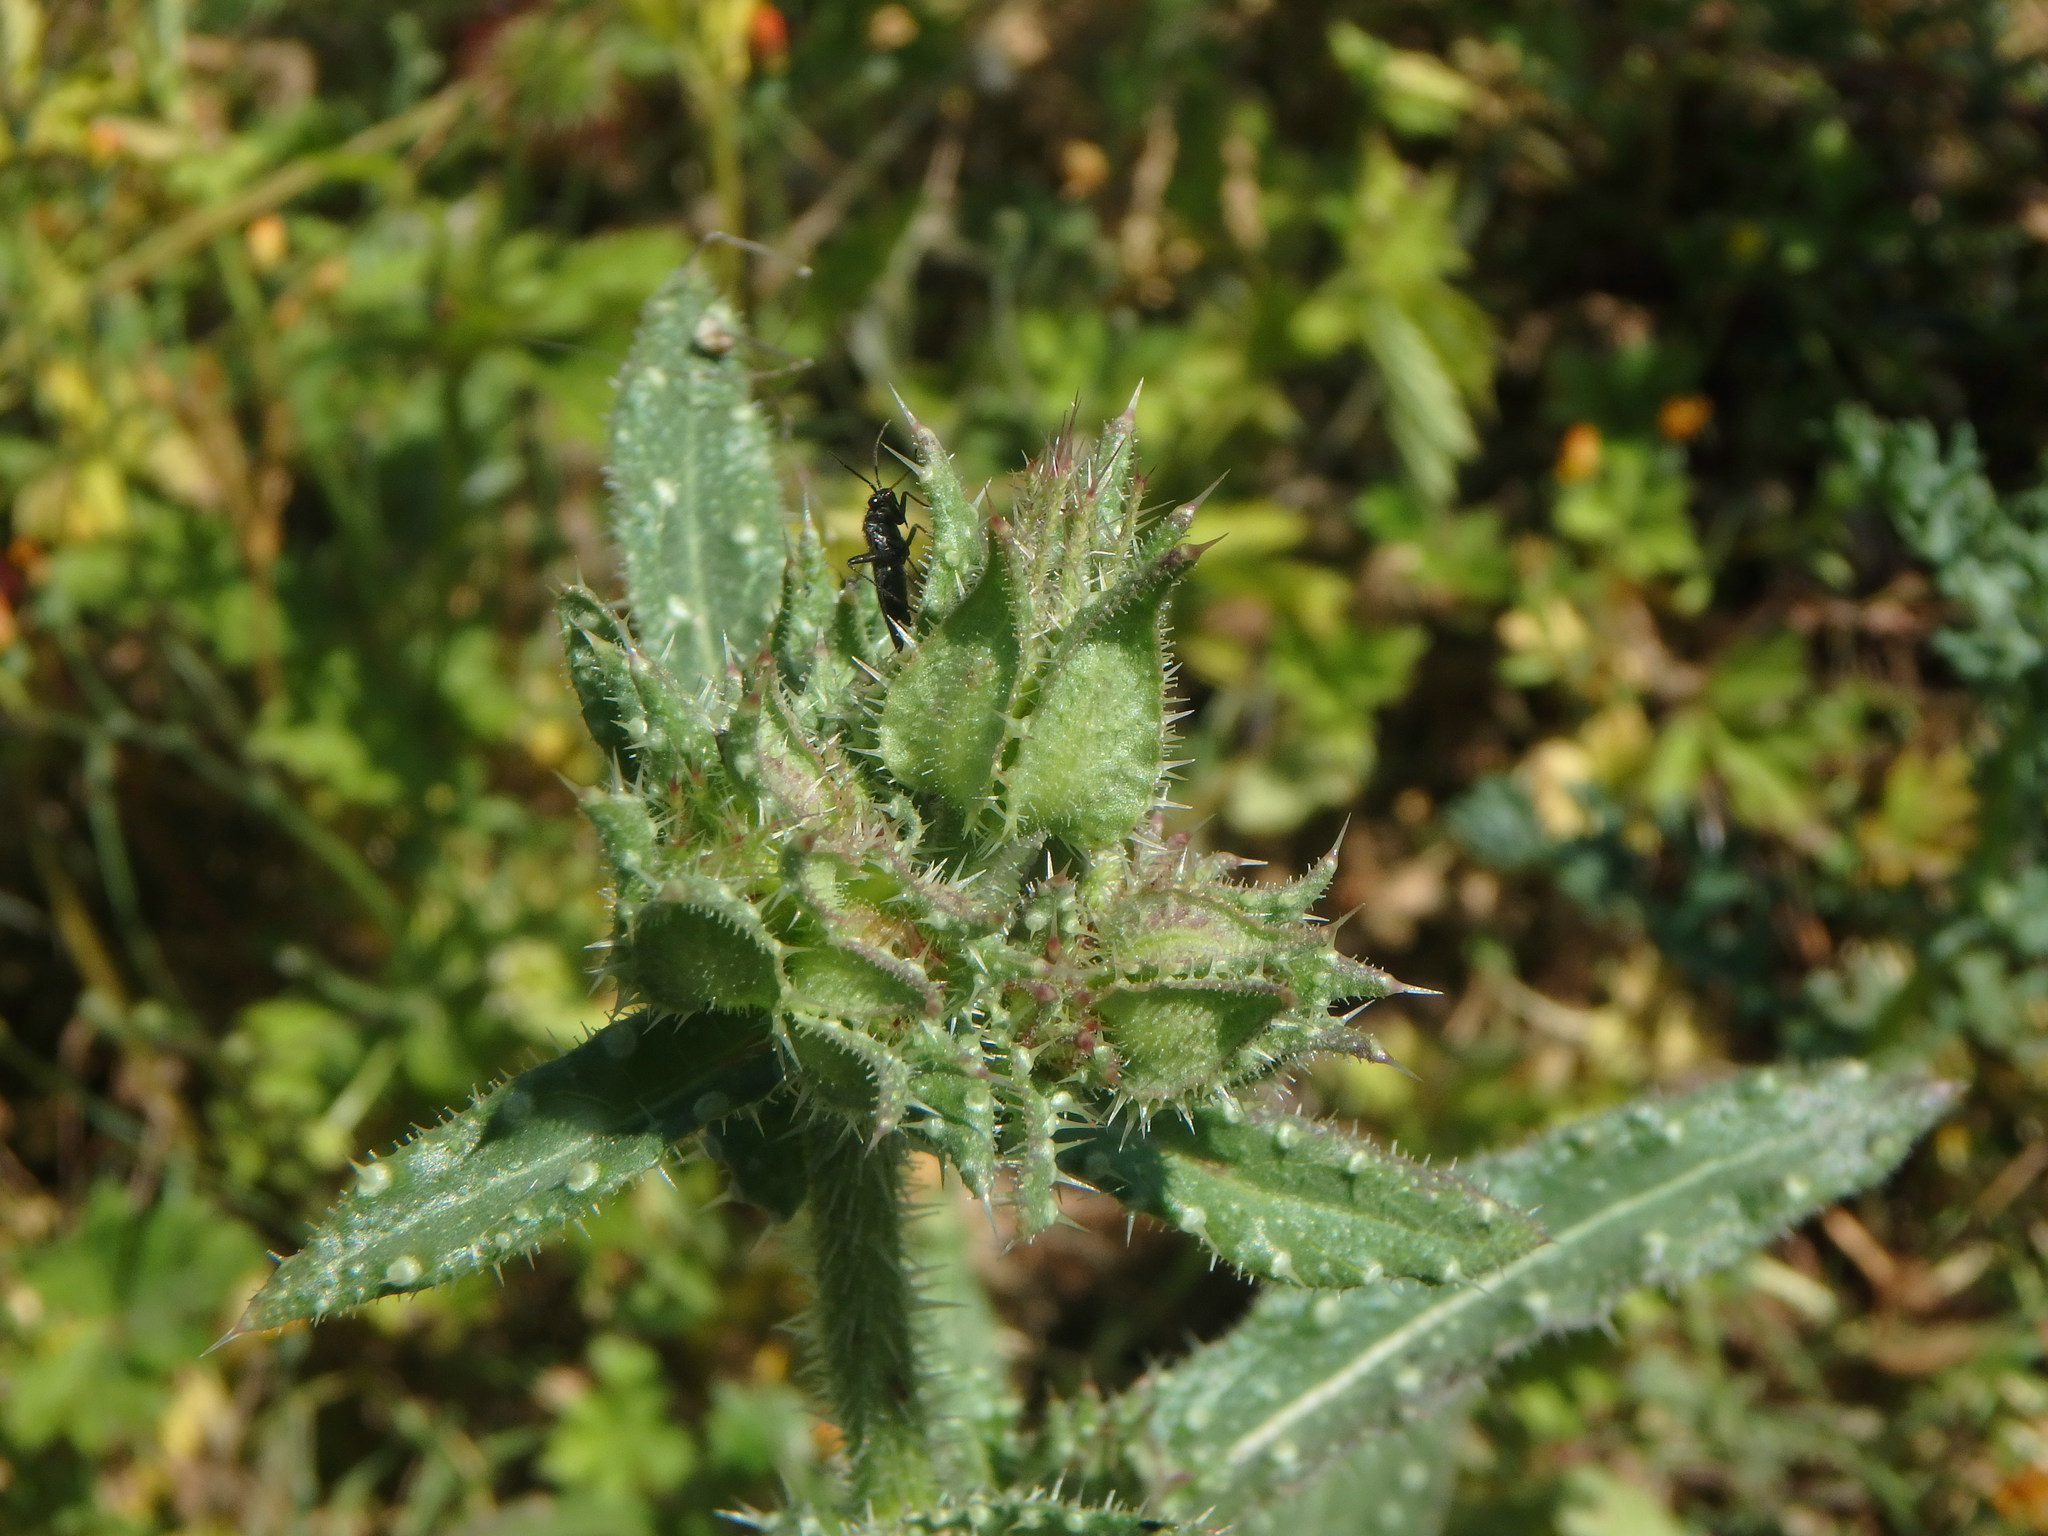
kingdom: Plantae
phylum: Tracheophyta
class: Magnoliopsida
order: Asterales
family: Asteraceae
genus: Helminthotheca
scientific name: Helminthotheca echioides
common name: Ox-tongue
